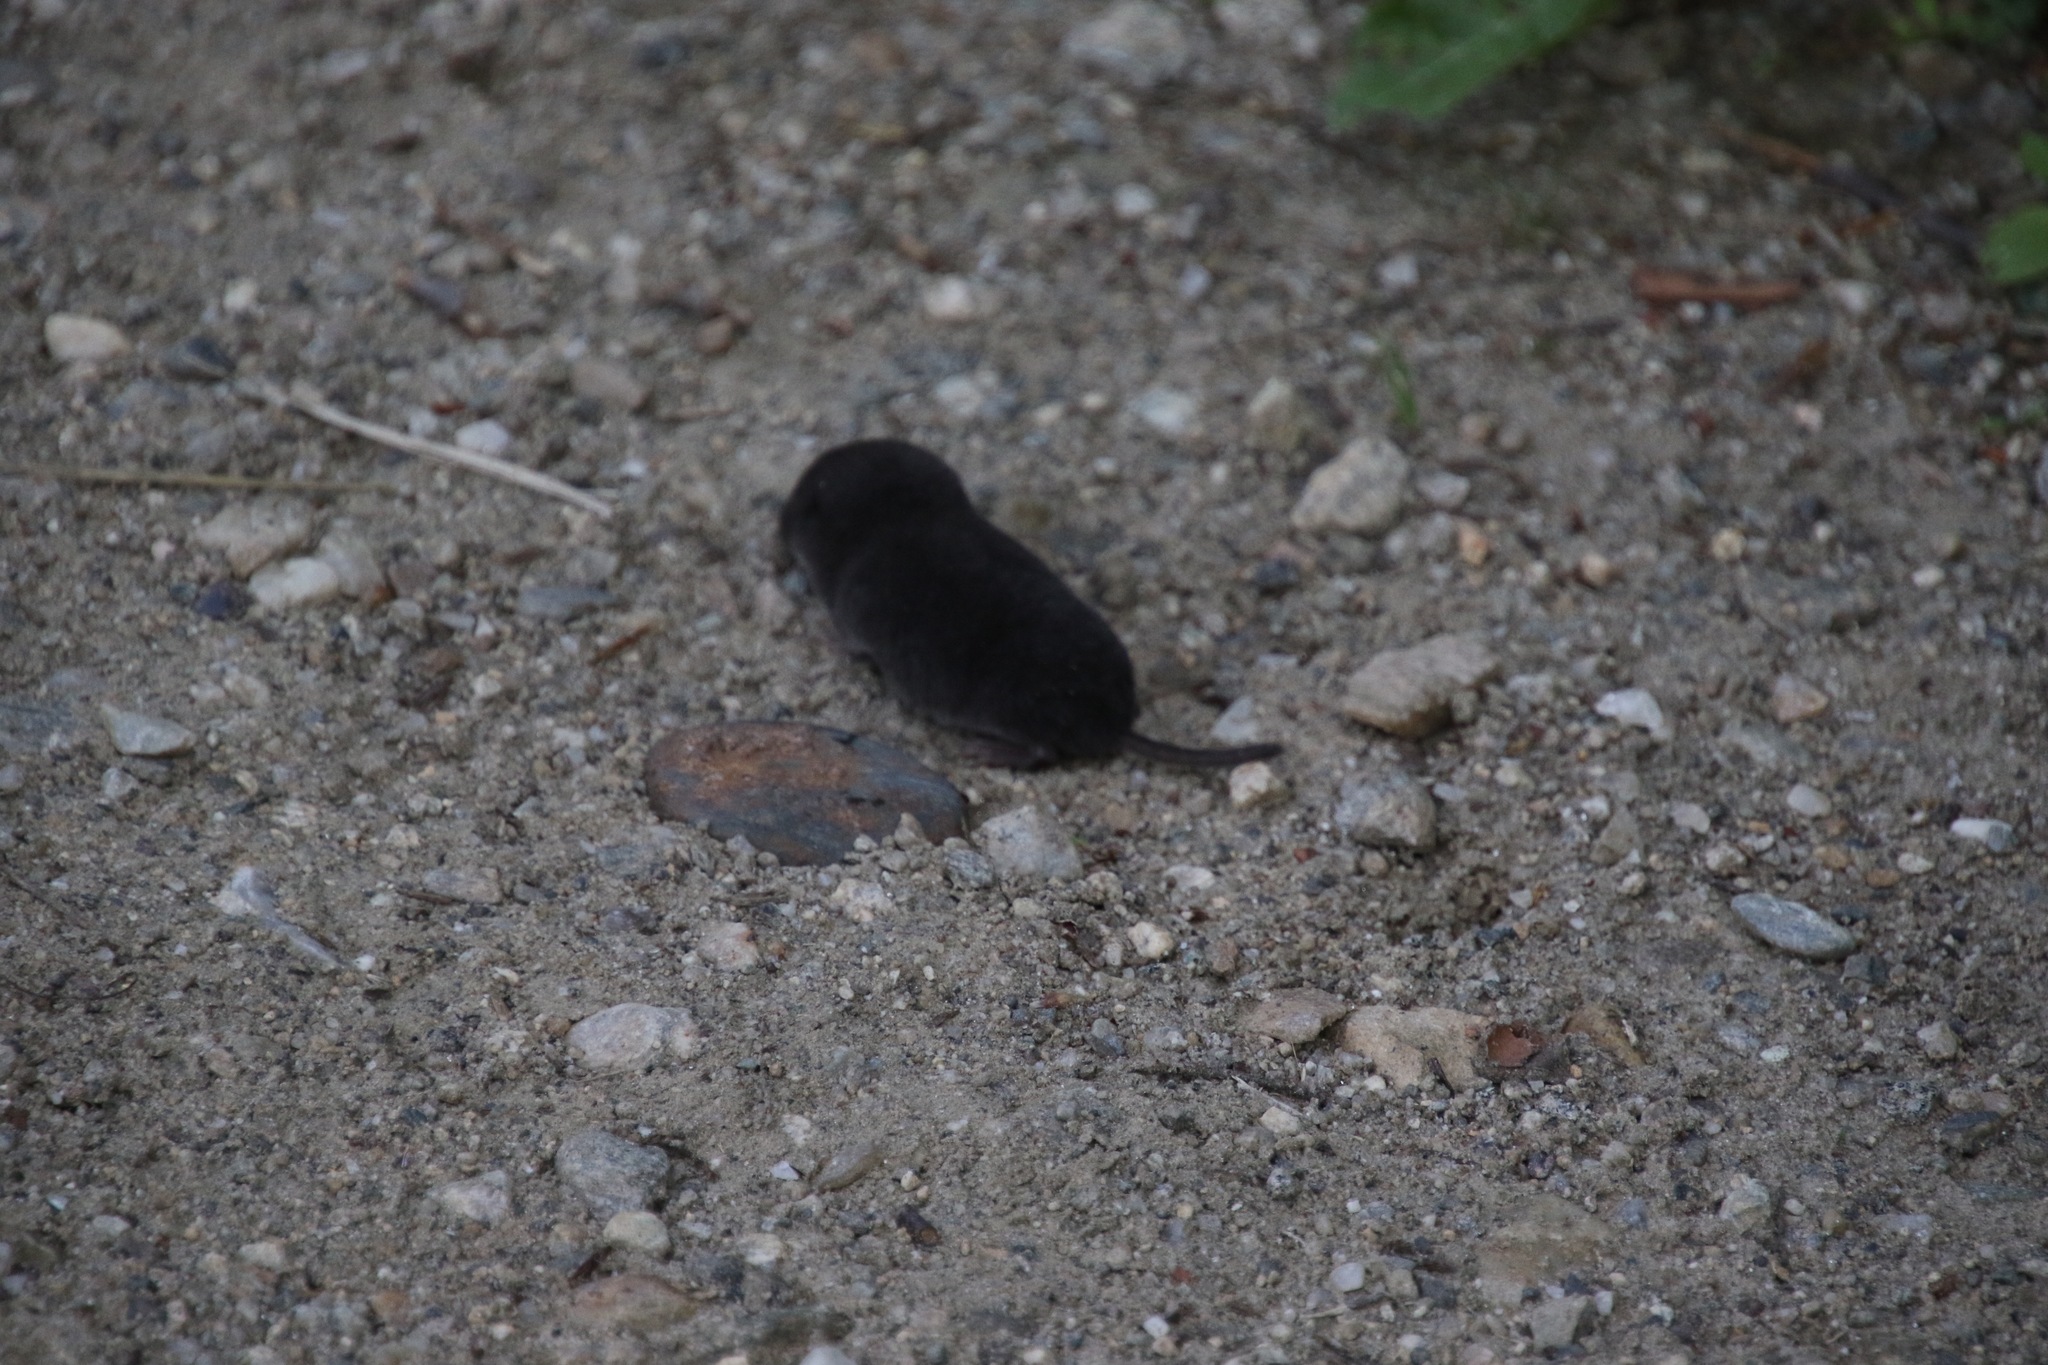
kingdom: Animalia
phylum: Chordata
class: Mammalia
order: Soricomorpha
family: Soricidae
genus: Blarina
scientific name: Blarina brevicauda
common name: Northern short-tailed shrew
